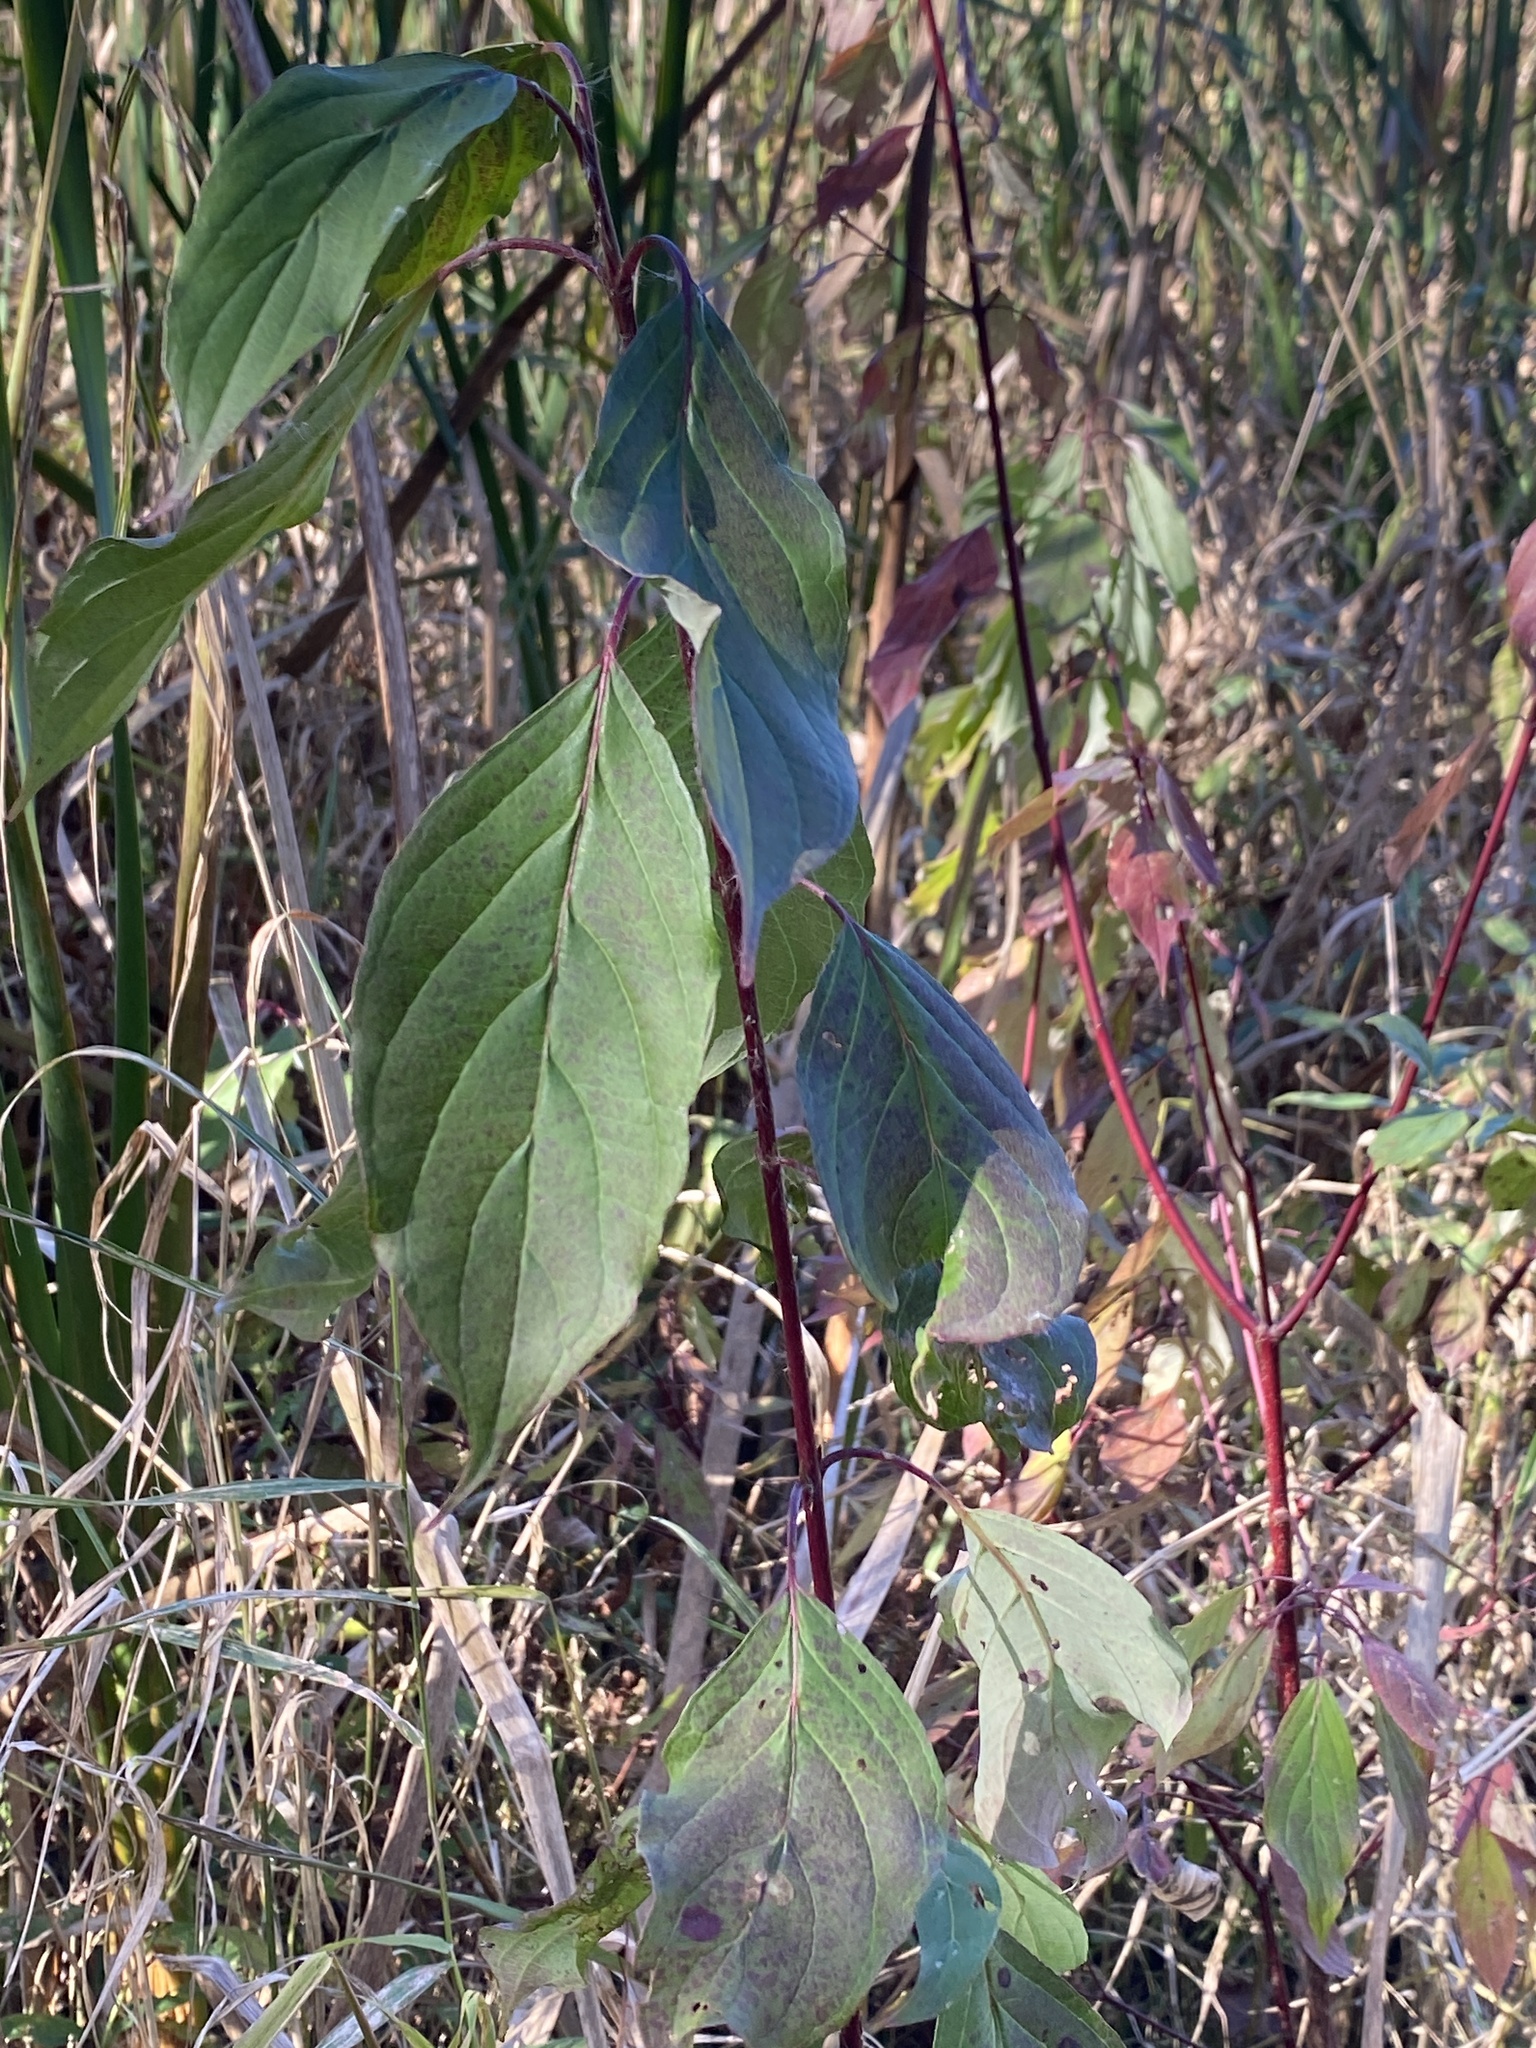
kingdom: Plantae
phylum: Tracheophyta
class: Magnoliopsida
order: Cornales
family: Cornaceae
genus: Cornus
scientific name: Cornus amomum
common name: Silky dogwood
